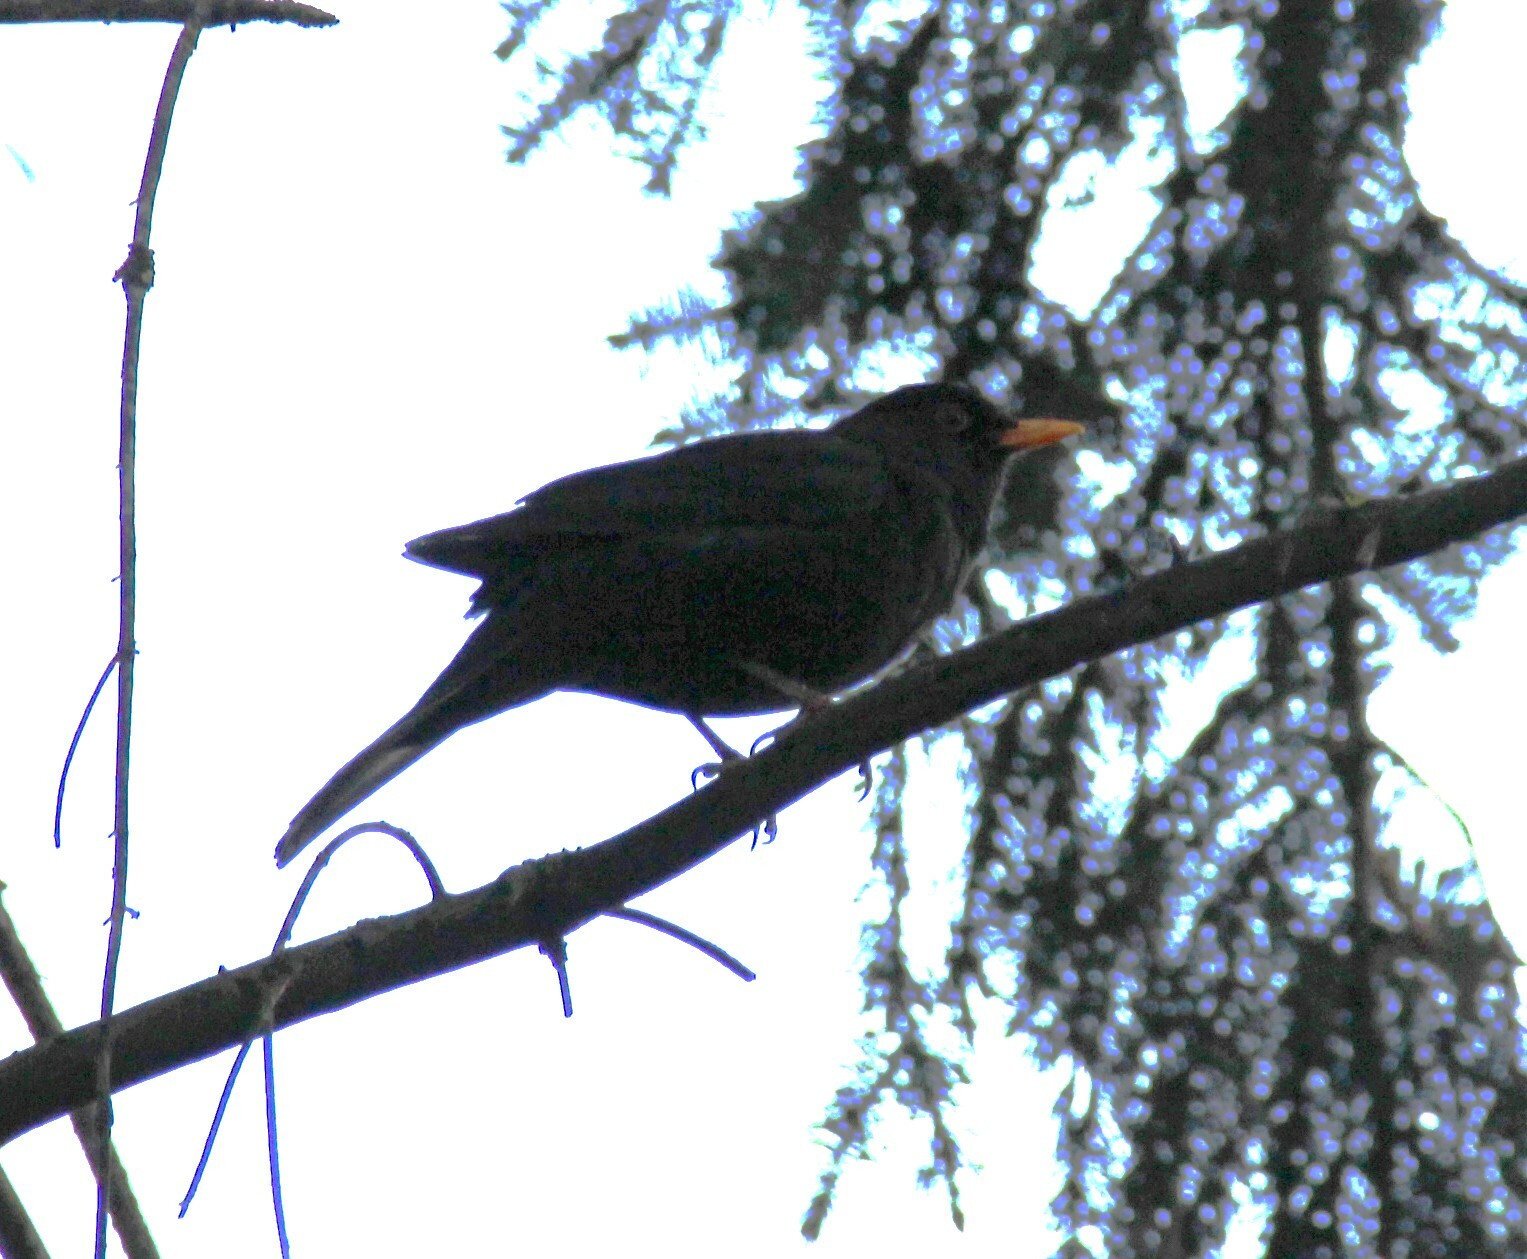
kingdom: Animalia
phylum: Chordata
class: Aves
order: Passeriformes
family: Turdidae
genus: Turdus
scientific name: Turdus merula
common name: Common blackbird
